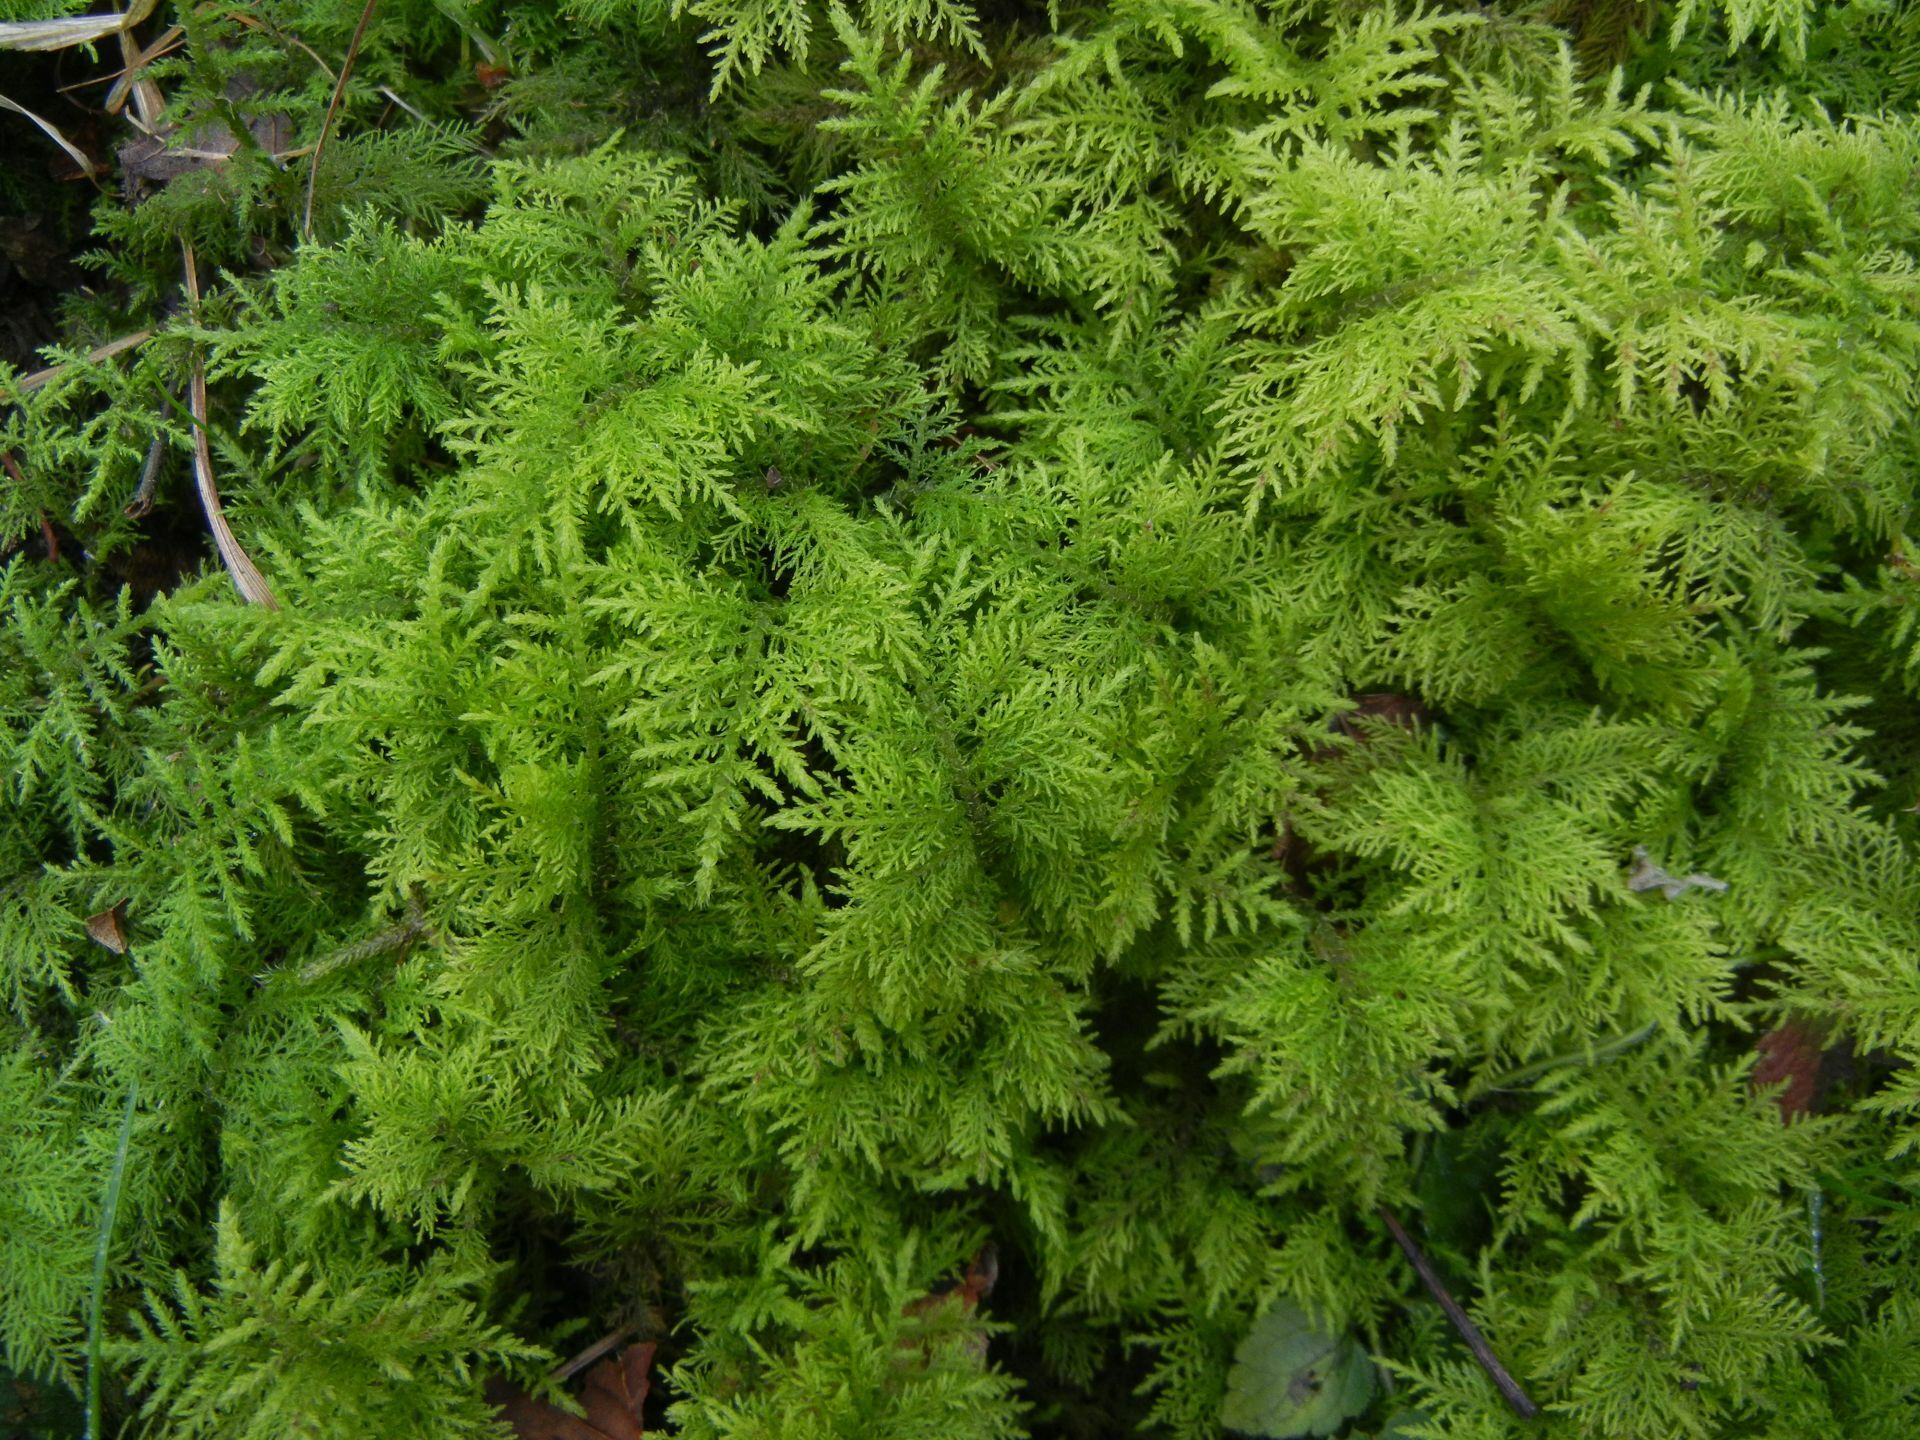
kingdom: Plantae
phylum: Bryophyta
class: Bryopsida
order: Hypnales
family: Thuidiaceae
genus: Thuidium
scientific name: Thuidium tamariscinum
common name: Common tamarisk-moss
